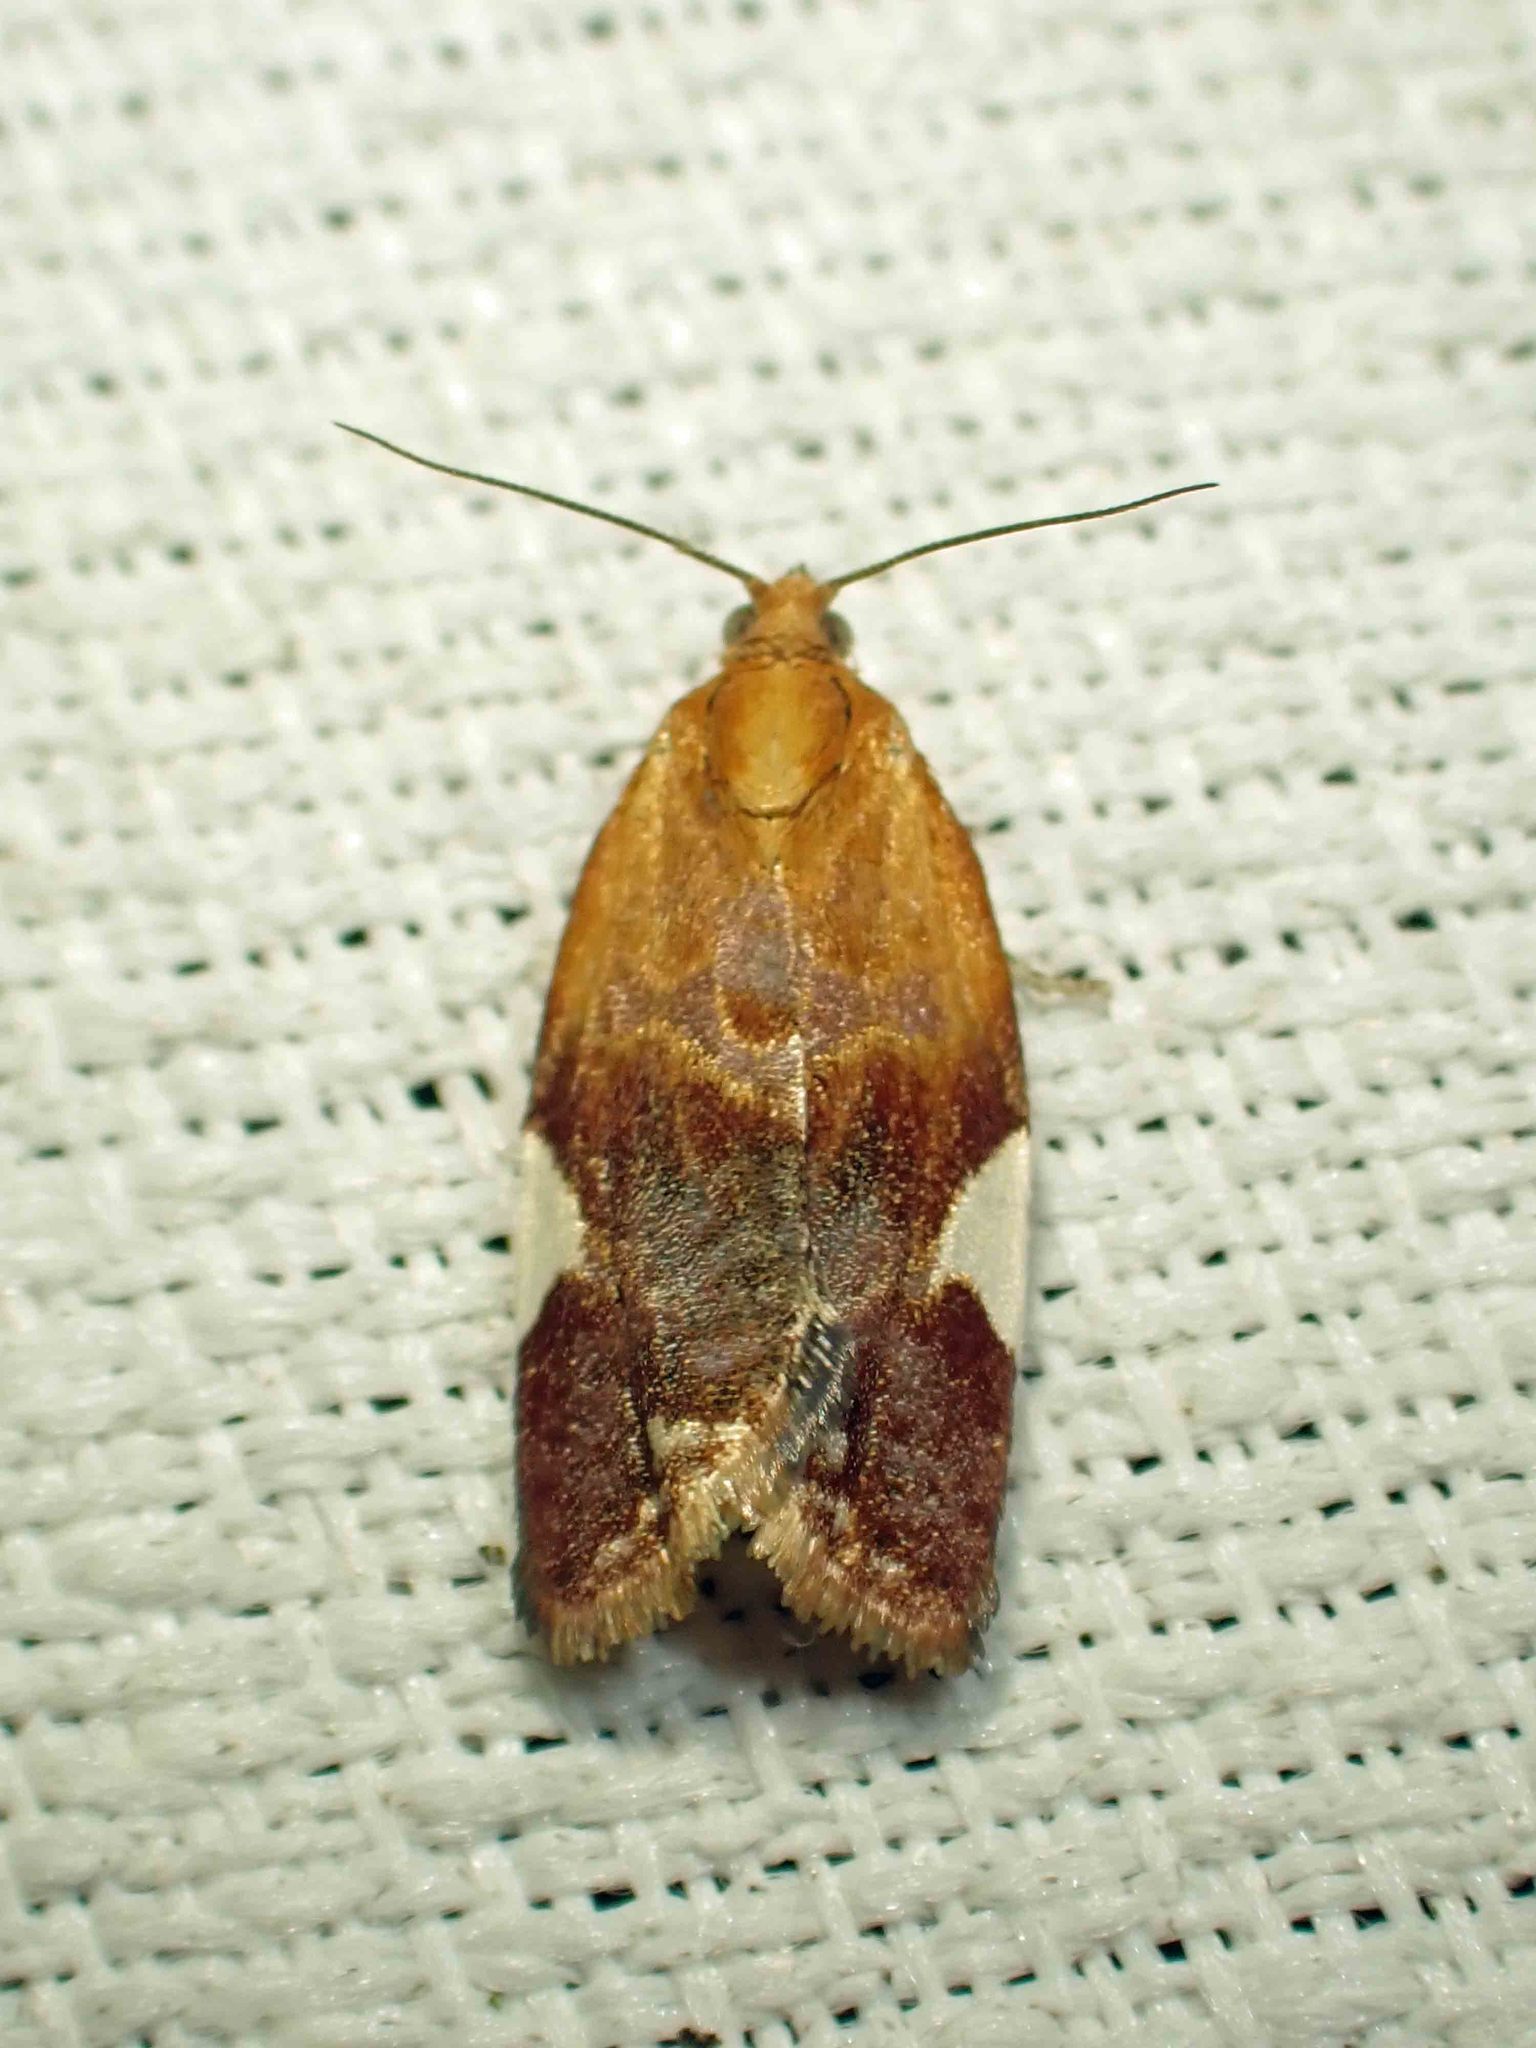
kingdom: Animalia
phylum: Arthropoda
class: Insecta
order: Lepidoptera
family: Tortricidae
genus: Clepsis
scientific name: Clepsis persicana
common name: White triangle tortrix
